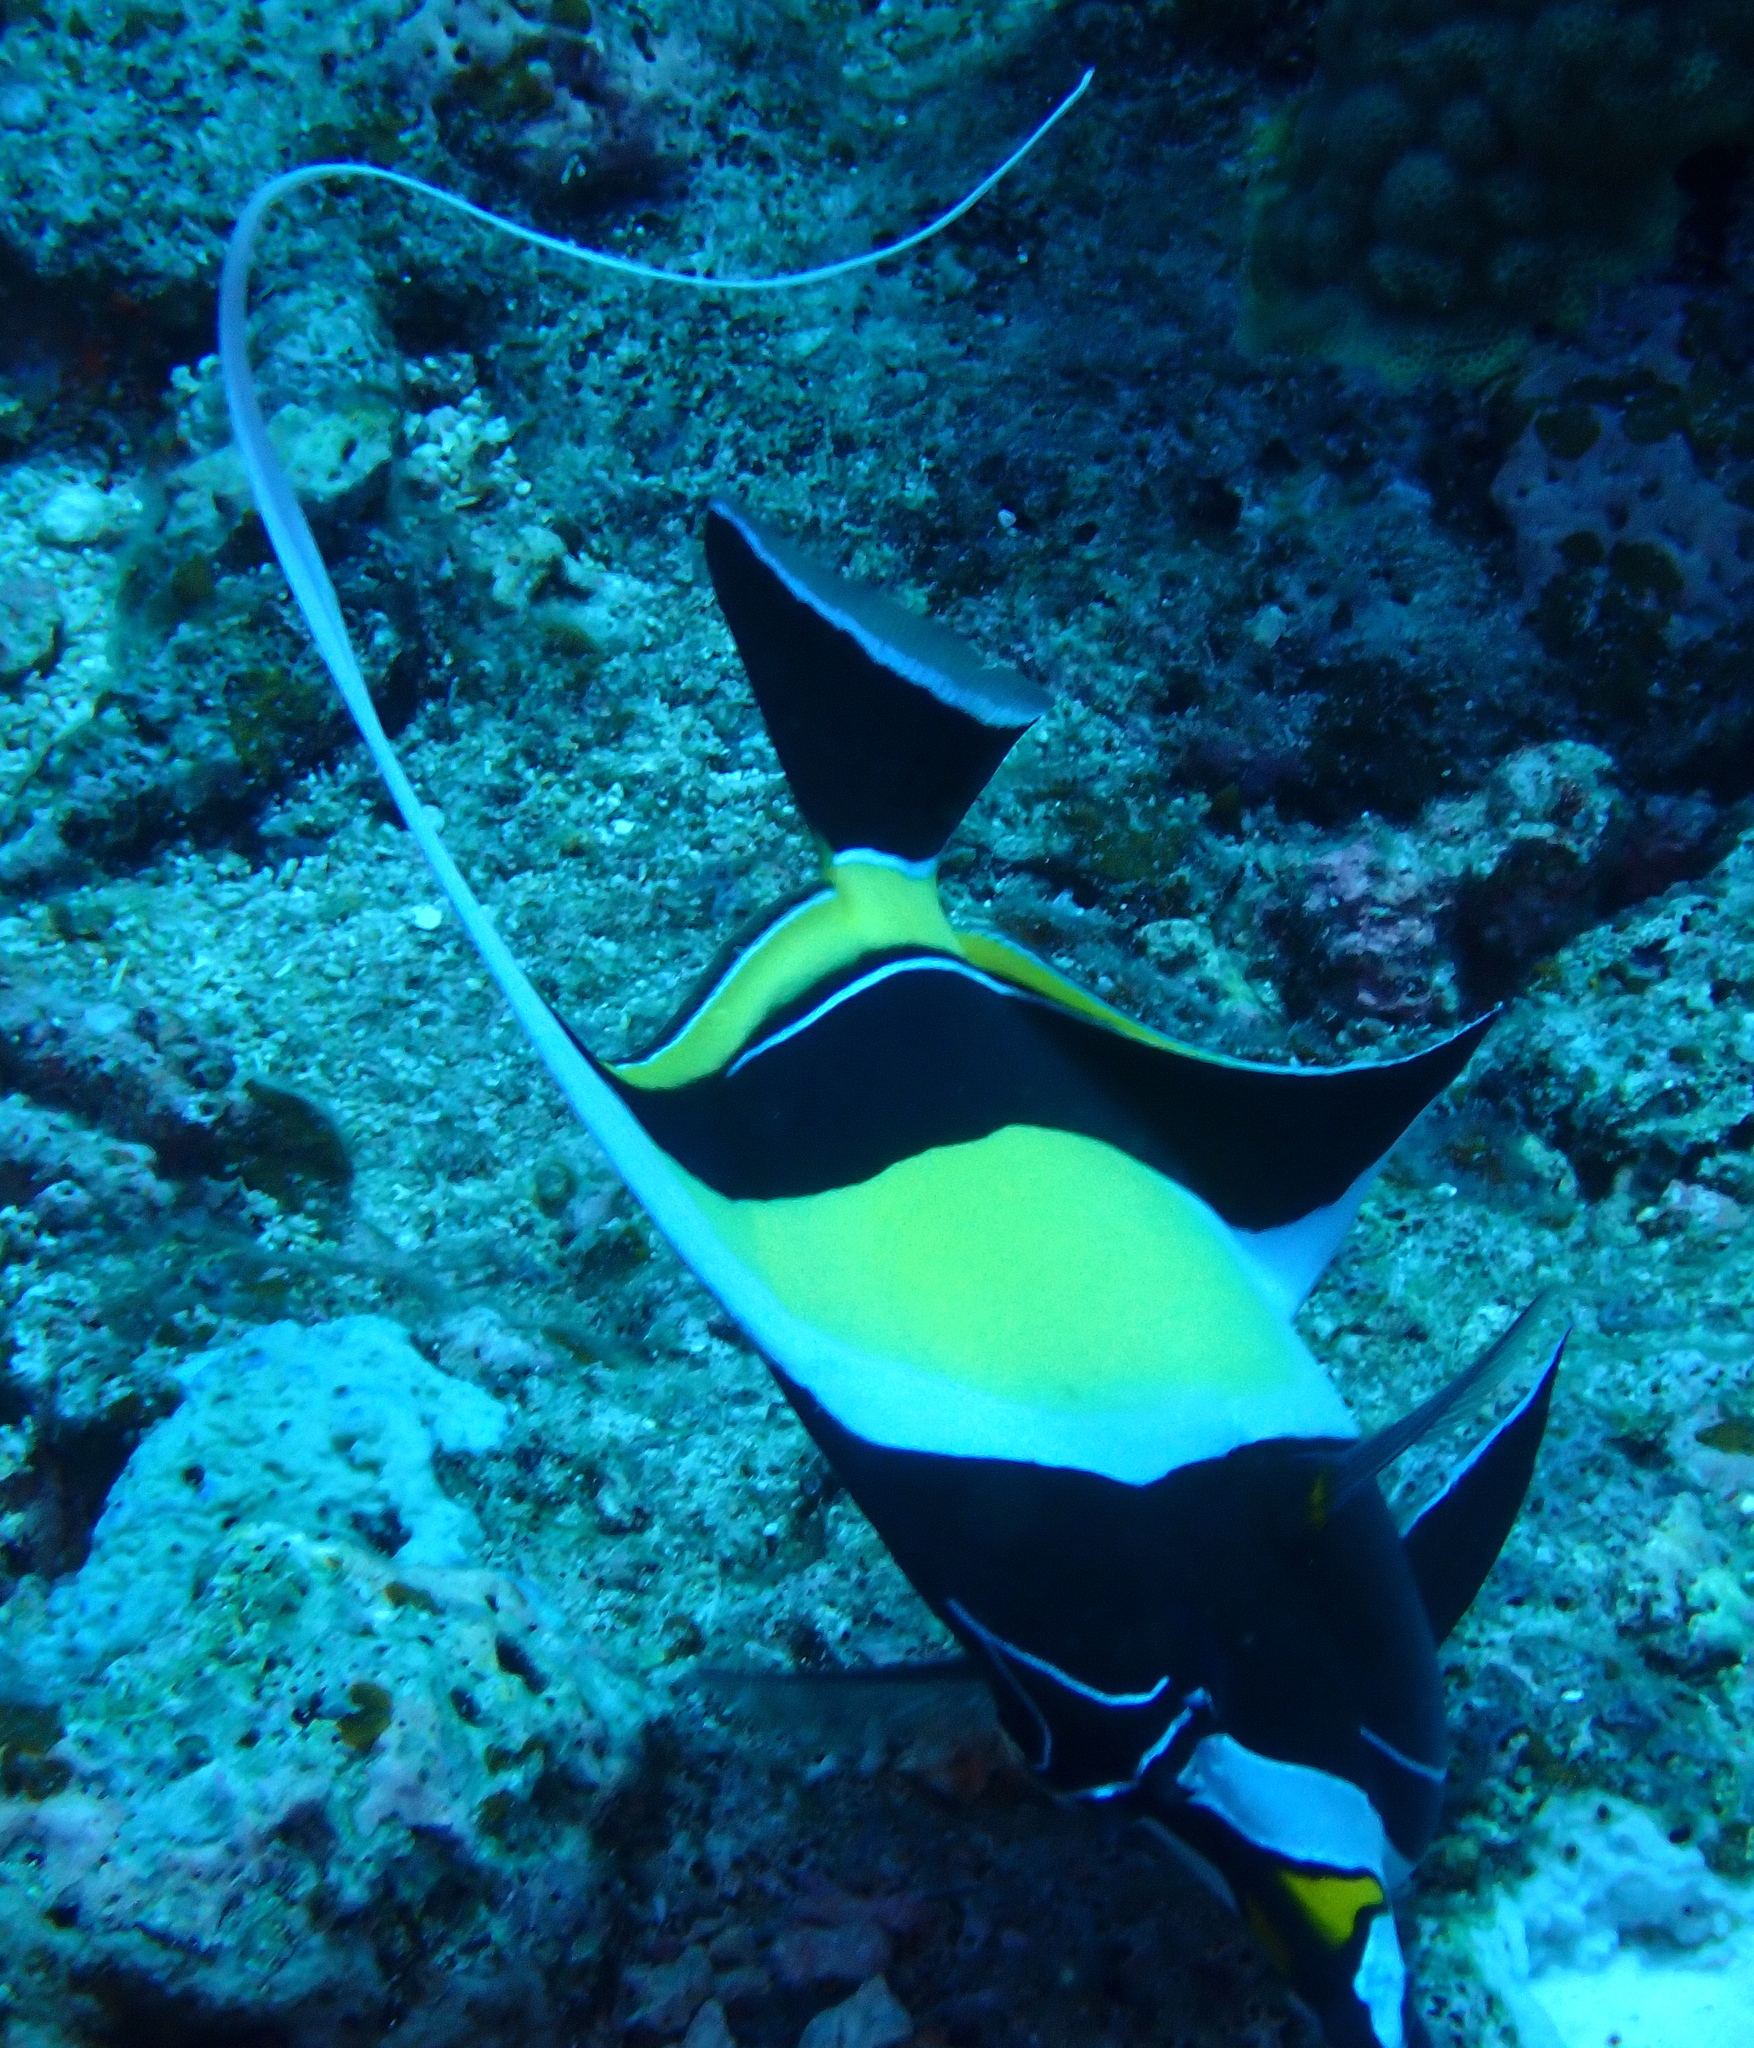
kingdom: Animalia
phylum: Chordata
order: Perciformes
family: Zanclidae
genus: Zanclus
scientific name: Zanclus cornutus
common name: Moorish idol
